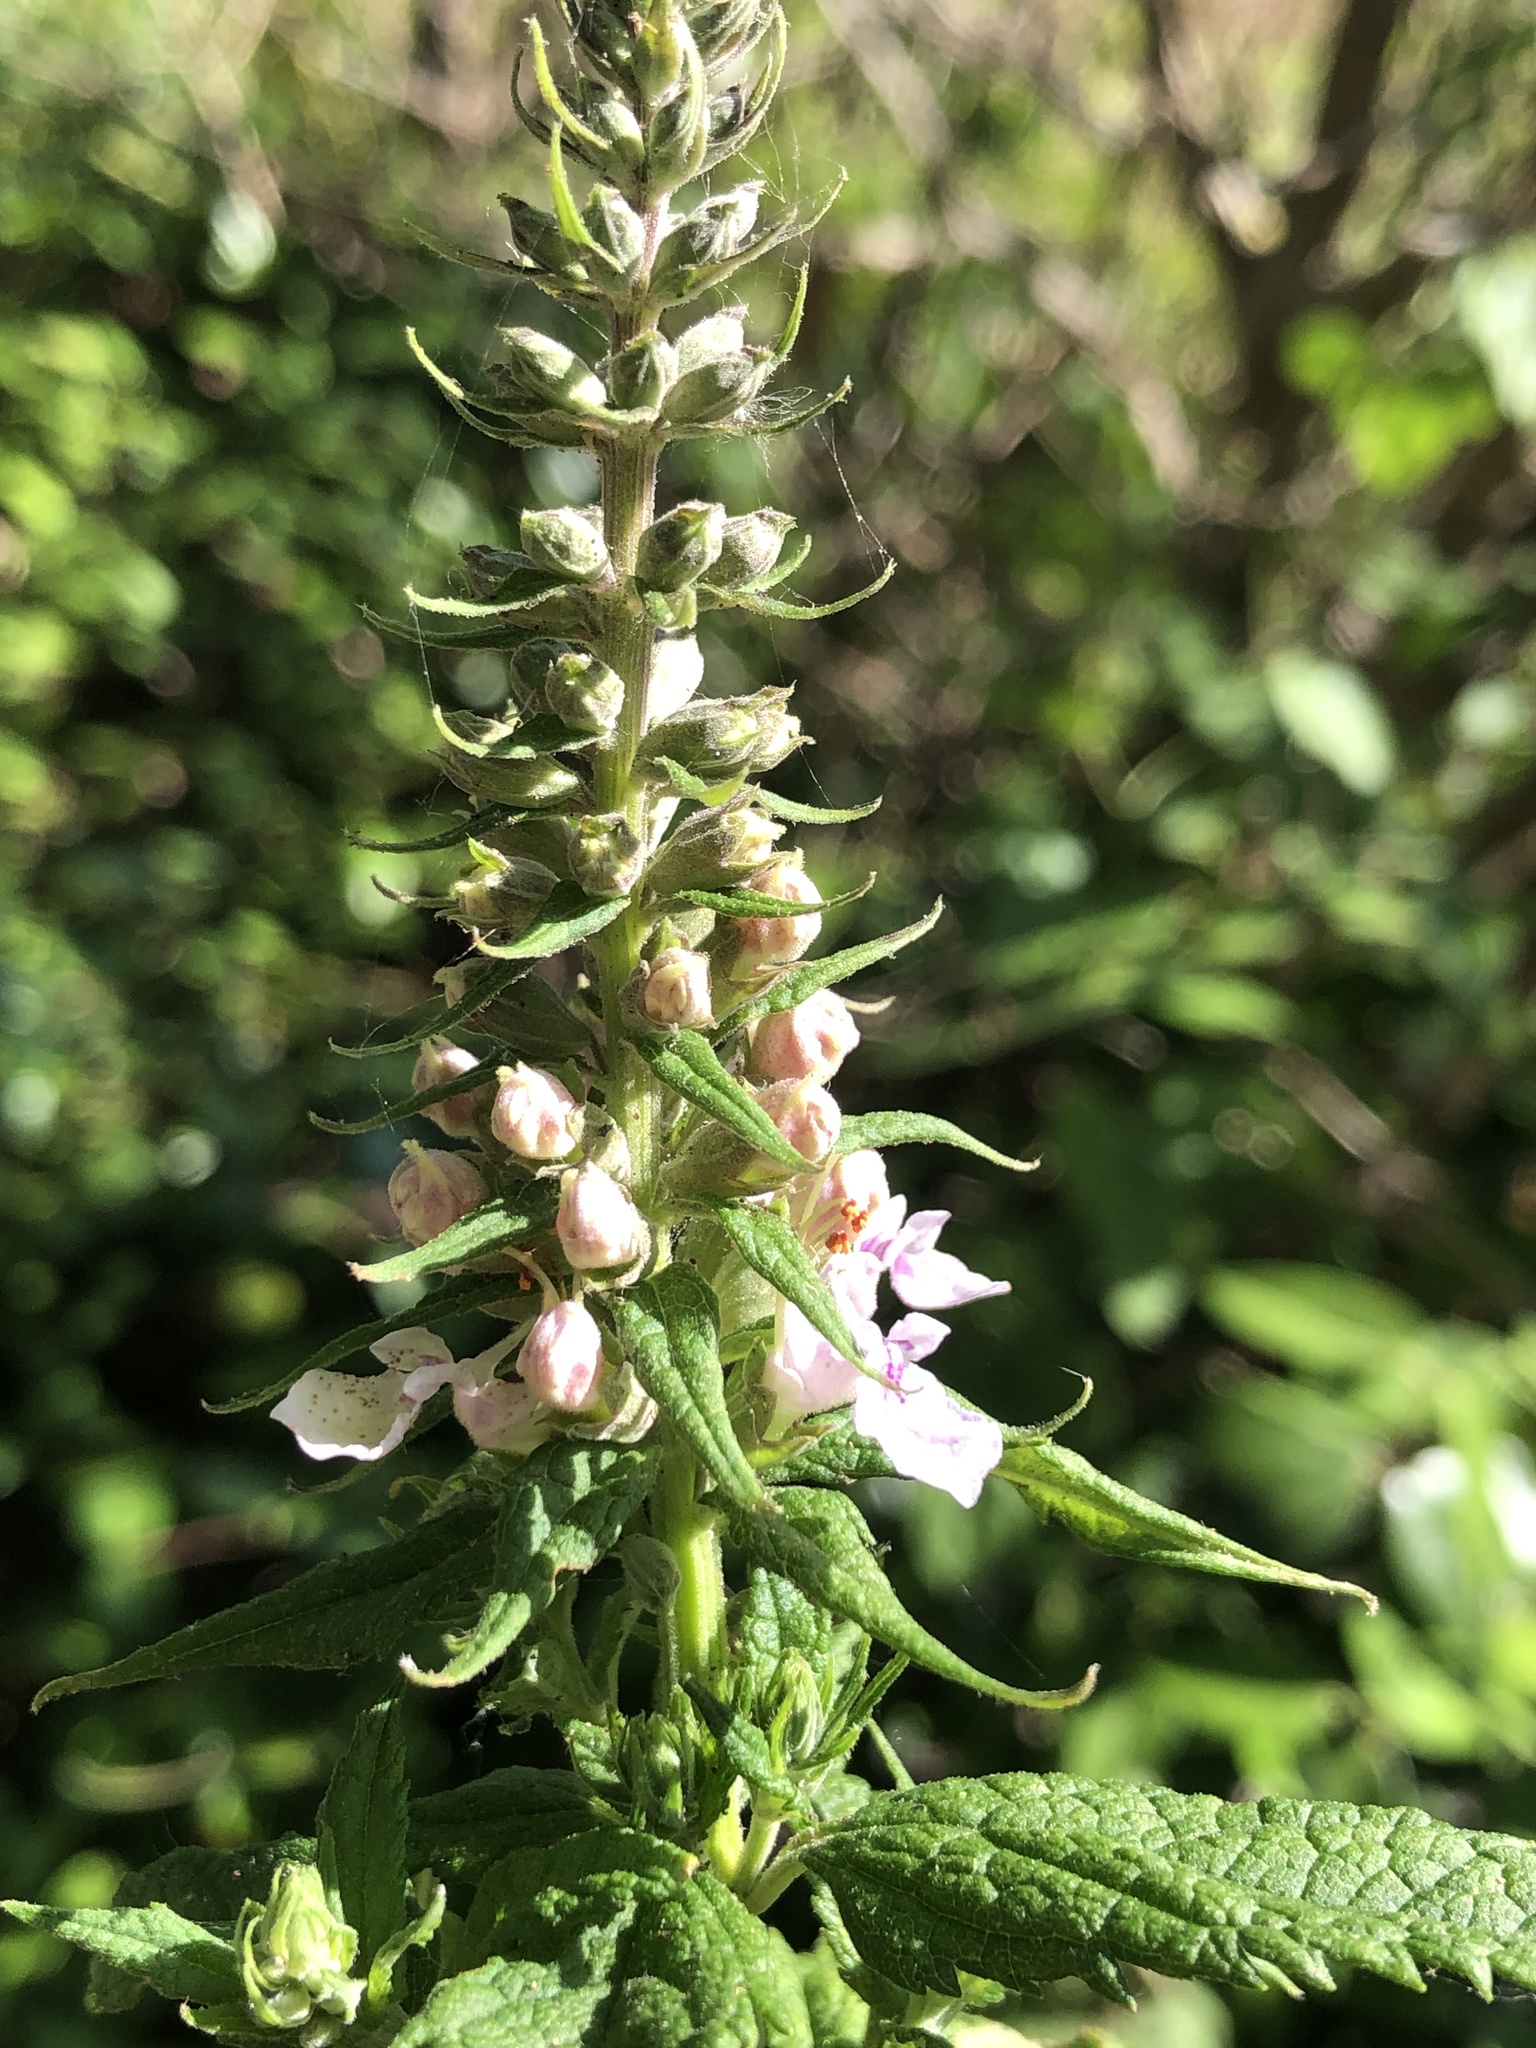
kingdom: Plantae
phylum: Tracheophyta
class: Magnoliopsida
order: Lamiales
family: Lamiaceae
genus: Teucrium
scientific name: Teucrium canadense
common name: American germander
